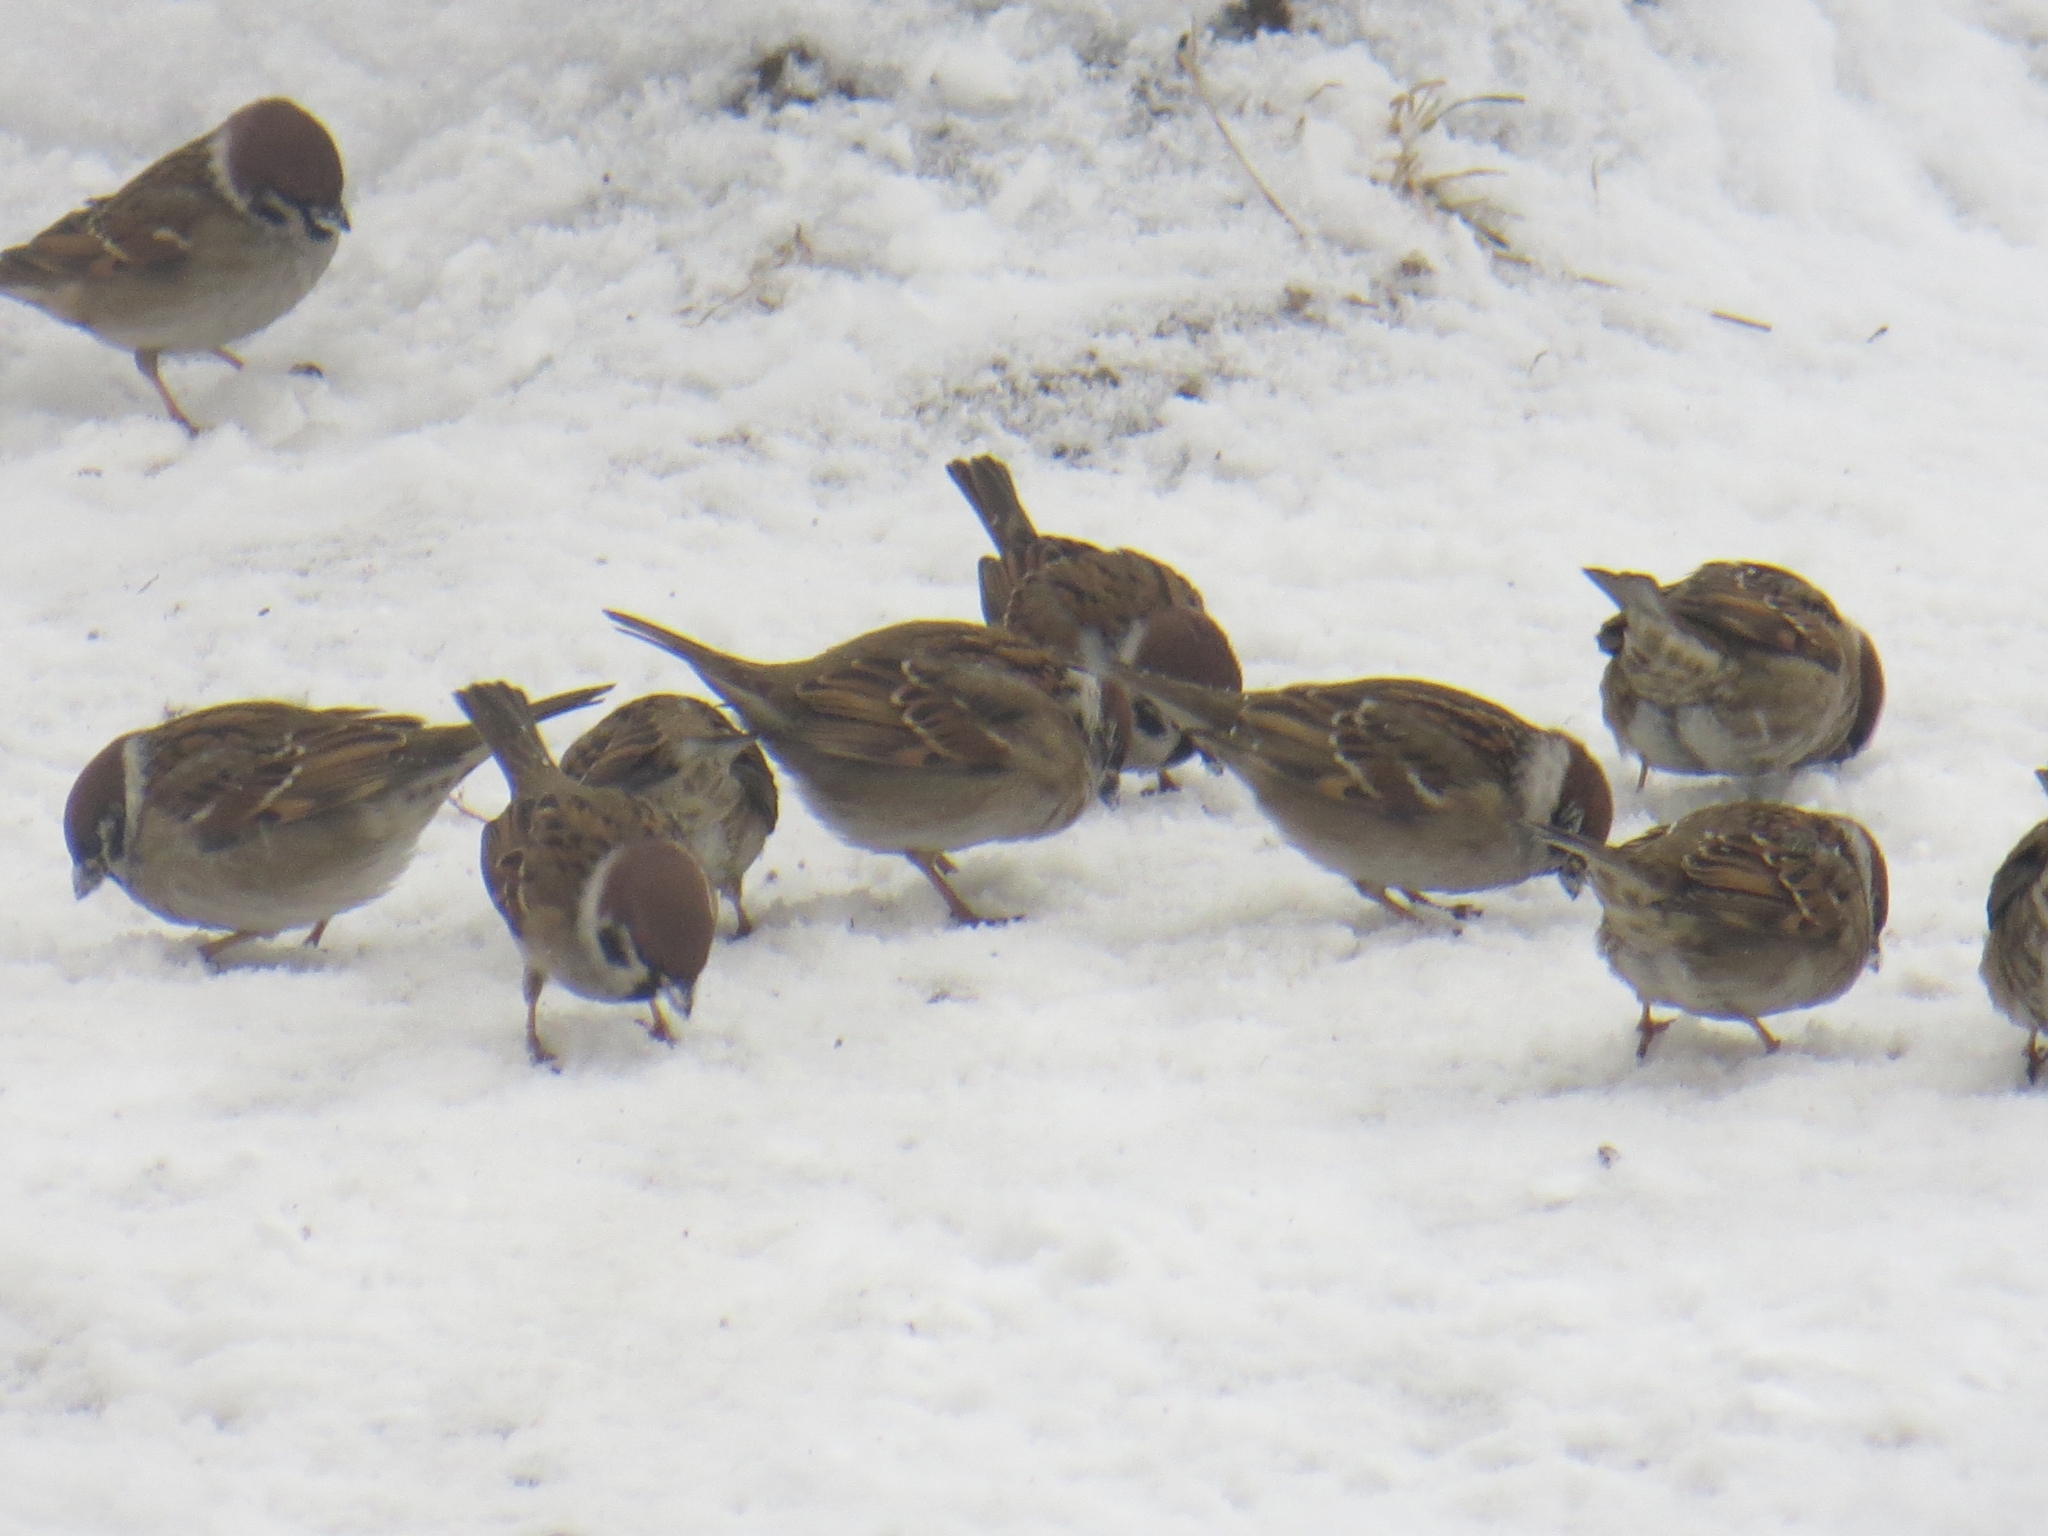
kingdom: Animalia
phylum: Chordata
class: Aves
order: Passeriformes
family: Passeridae
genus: Passer
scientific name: Passer montanus
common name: Eurasian tree sparrow
